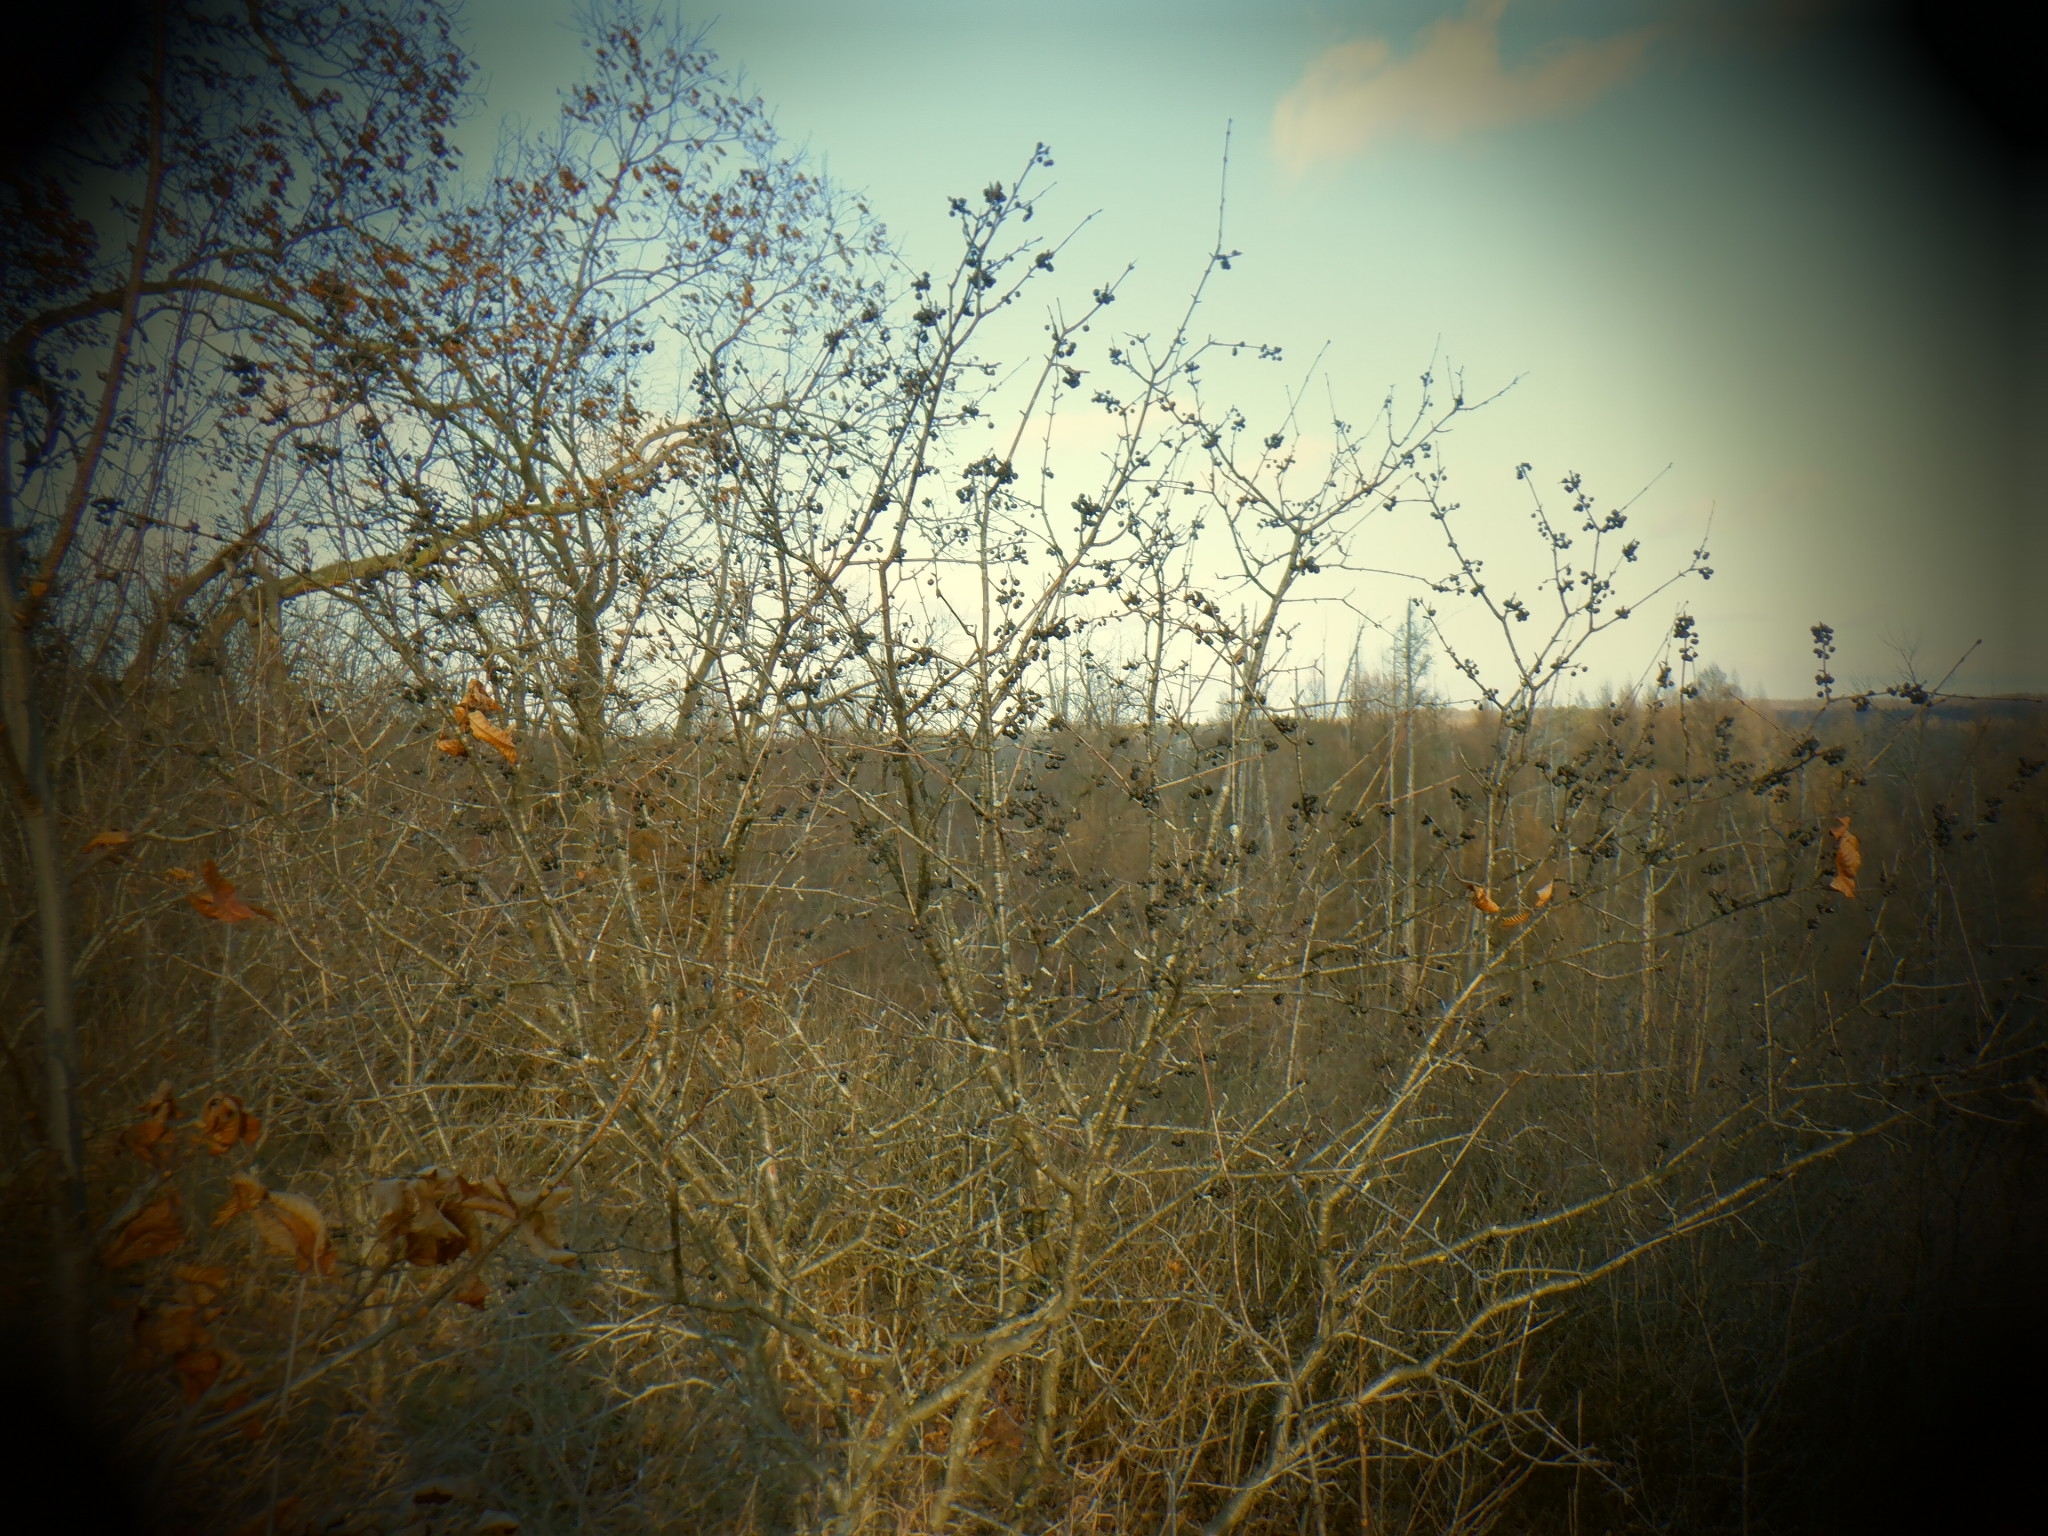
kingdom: Plantae
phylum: Tracheophyta
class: Magnoliopsida
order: Rosales
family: Rhamnaceae
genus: Rhamnus
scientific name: Rhamnus cathartica
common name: Common buckthorn
